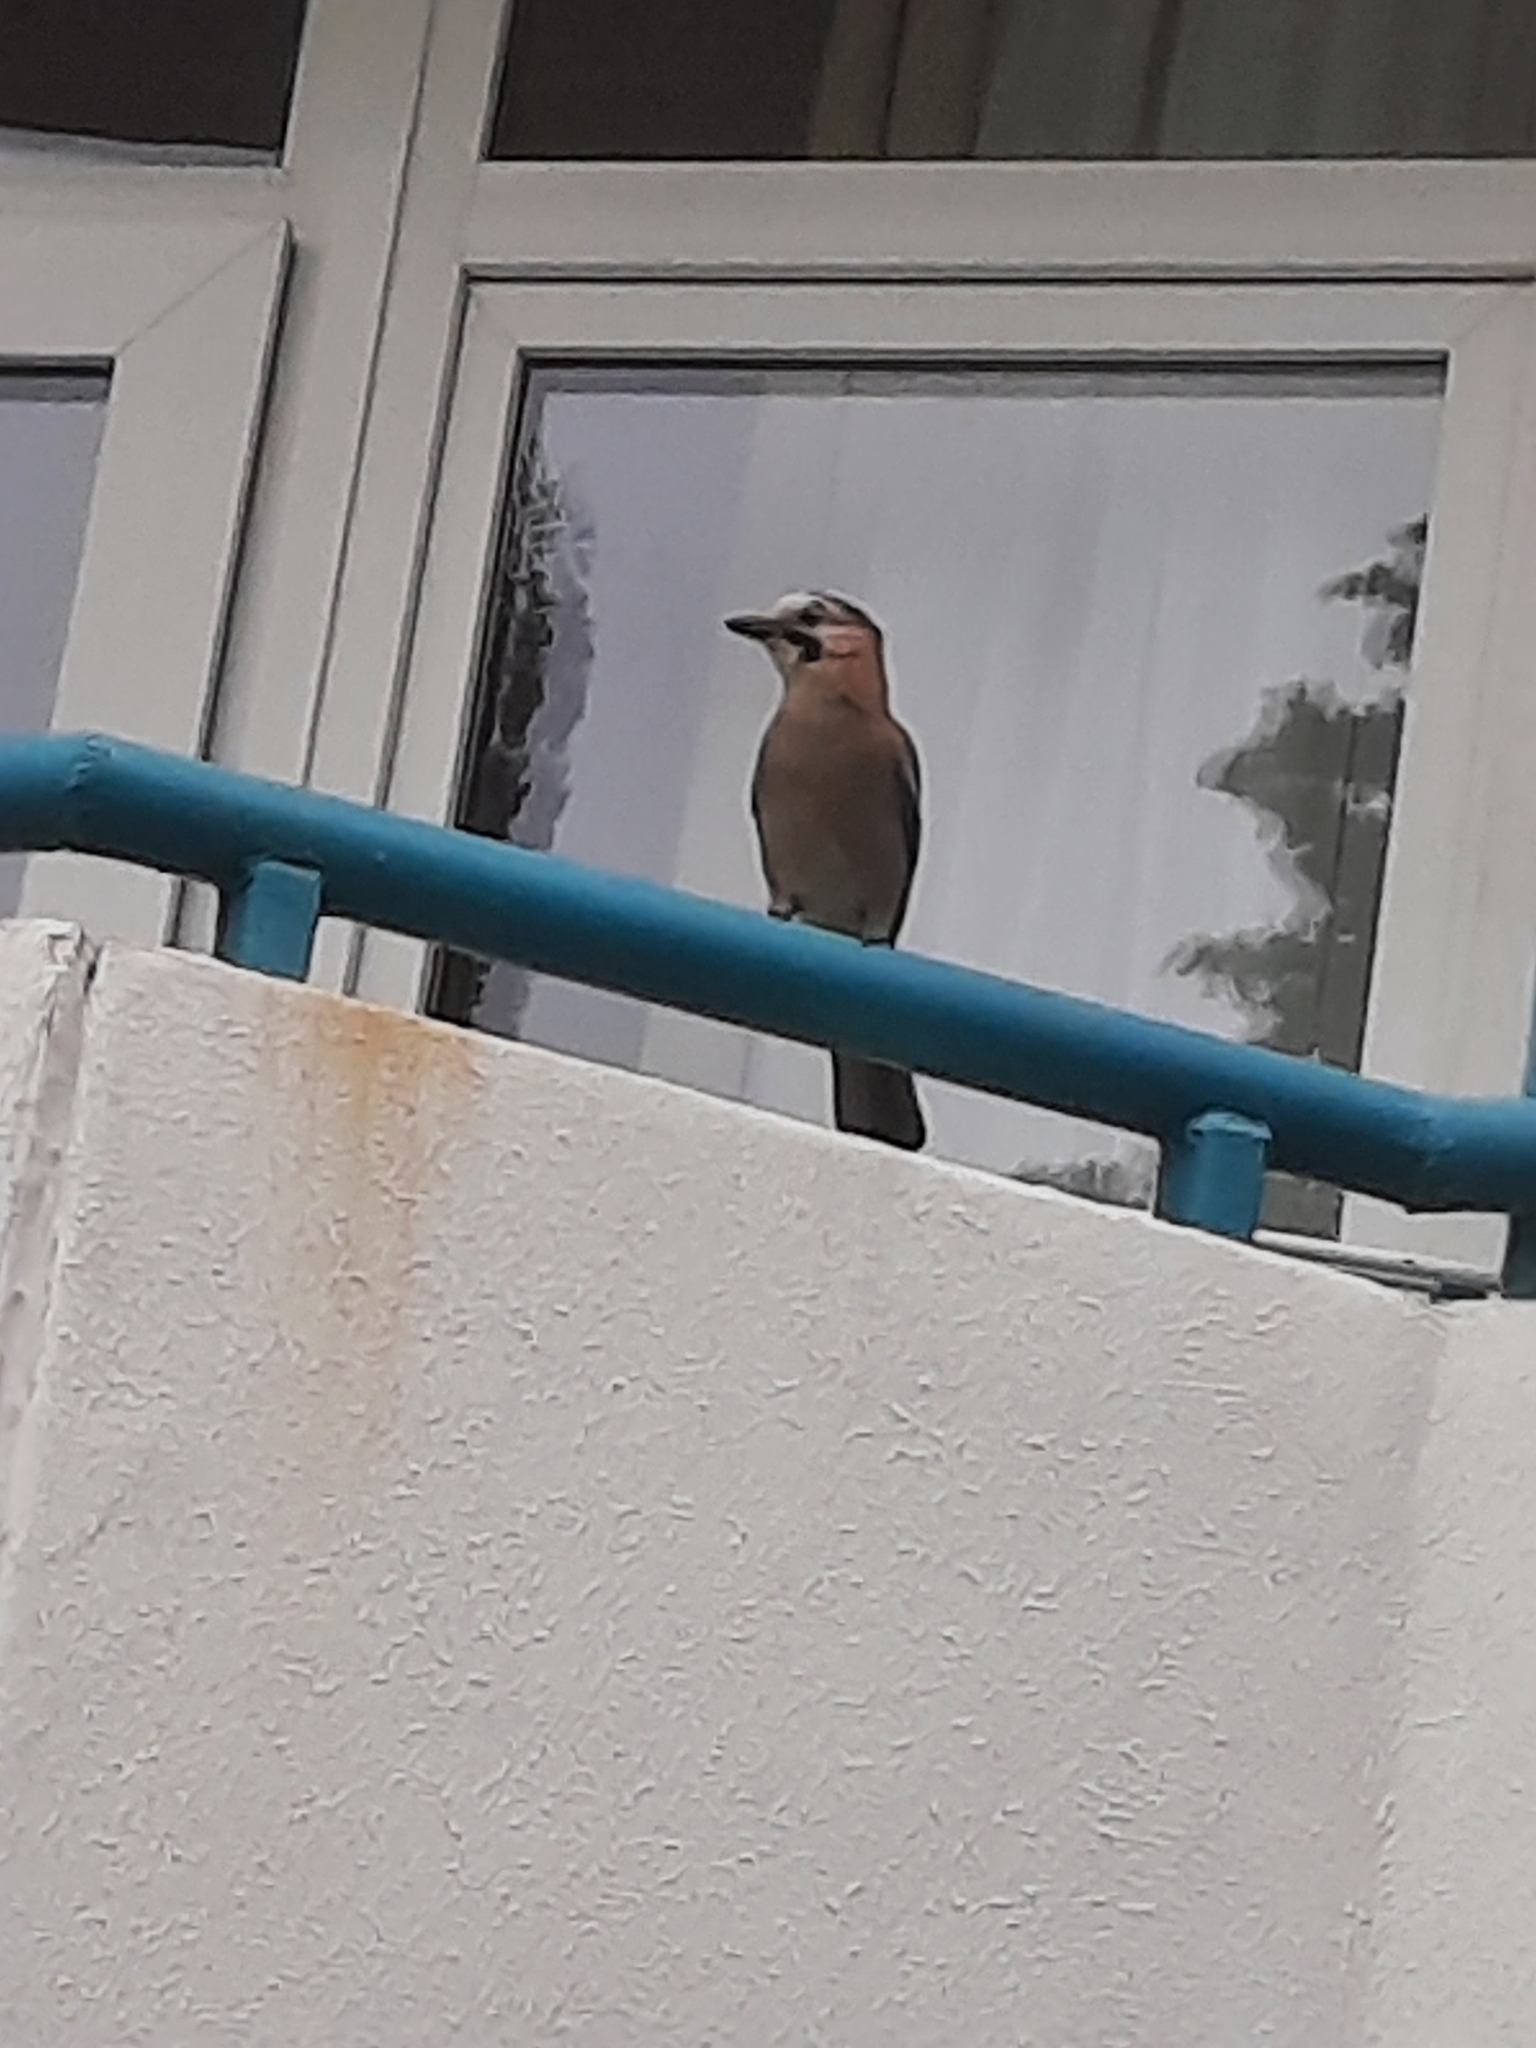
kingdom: Animalia
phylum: Chordata
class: Aves
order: Passeriformes
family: Corvidae
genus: Garrulus
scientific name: Garrulus glandarius
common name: Eurasian jay
